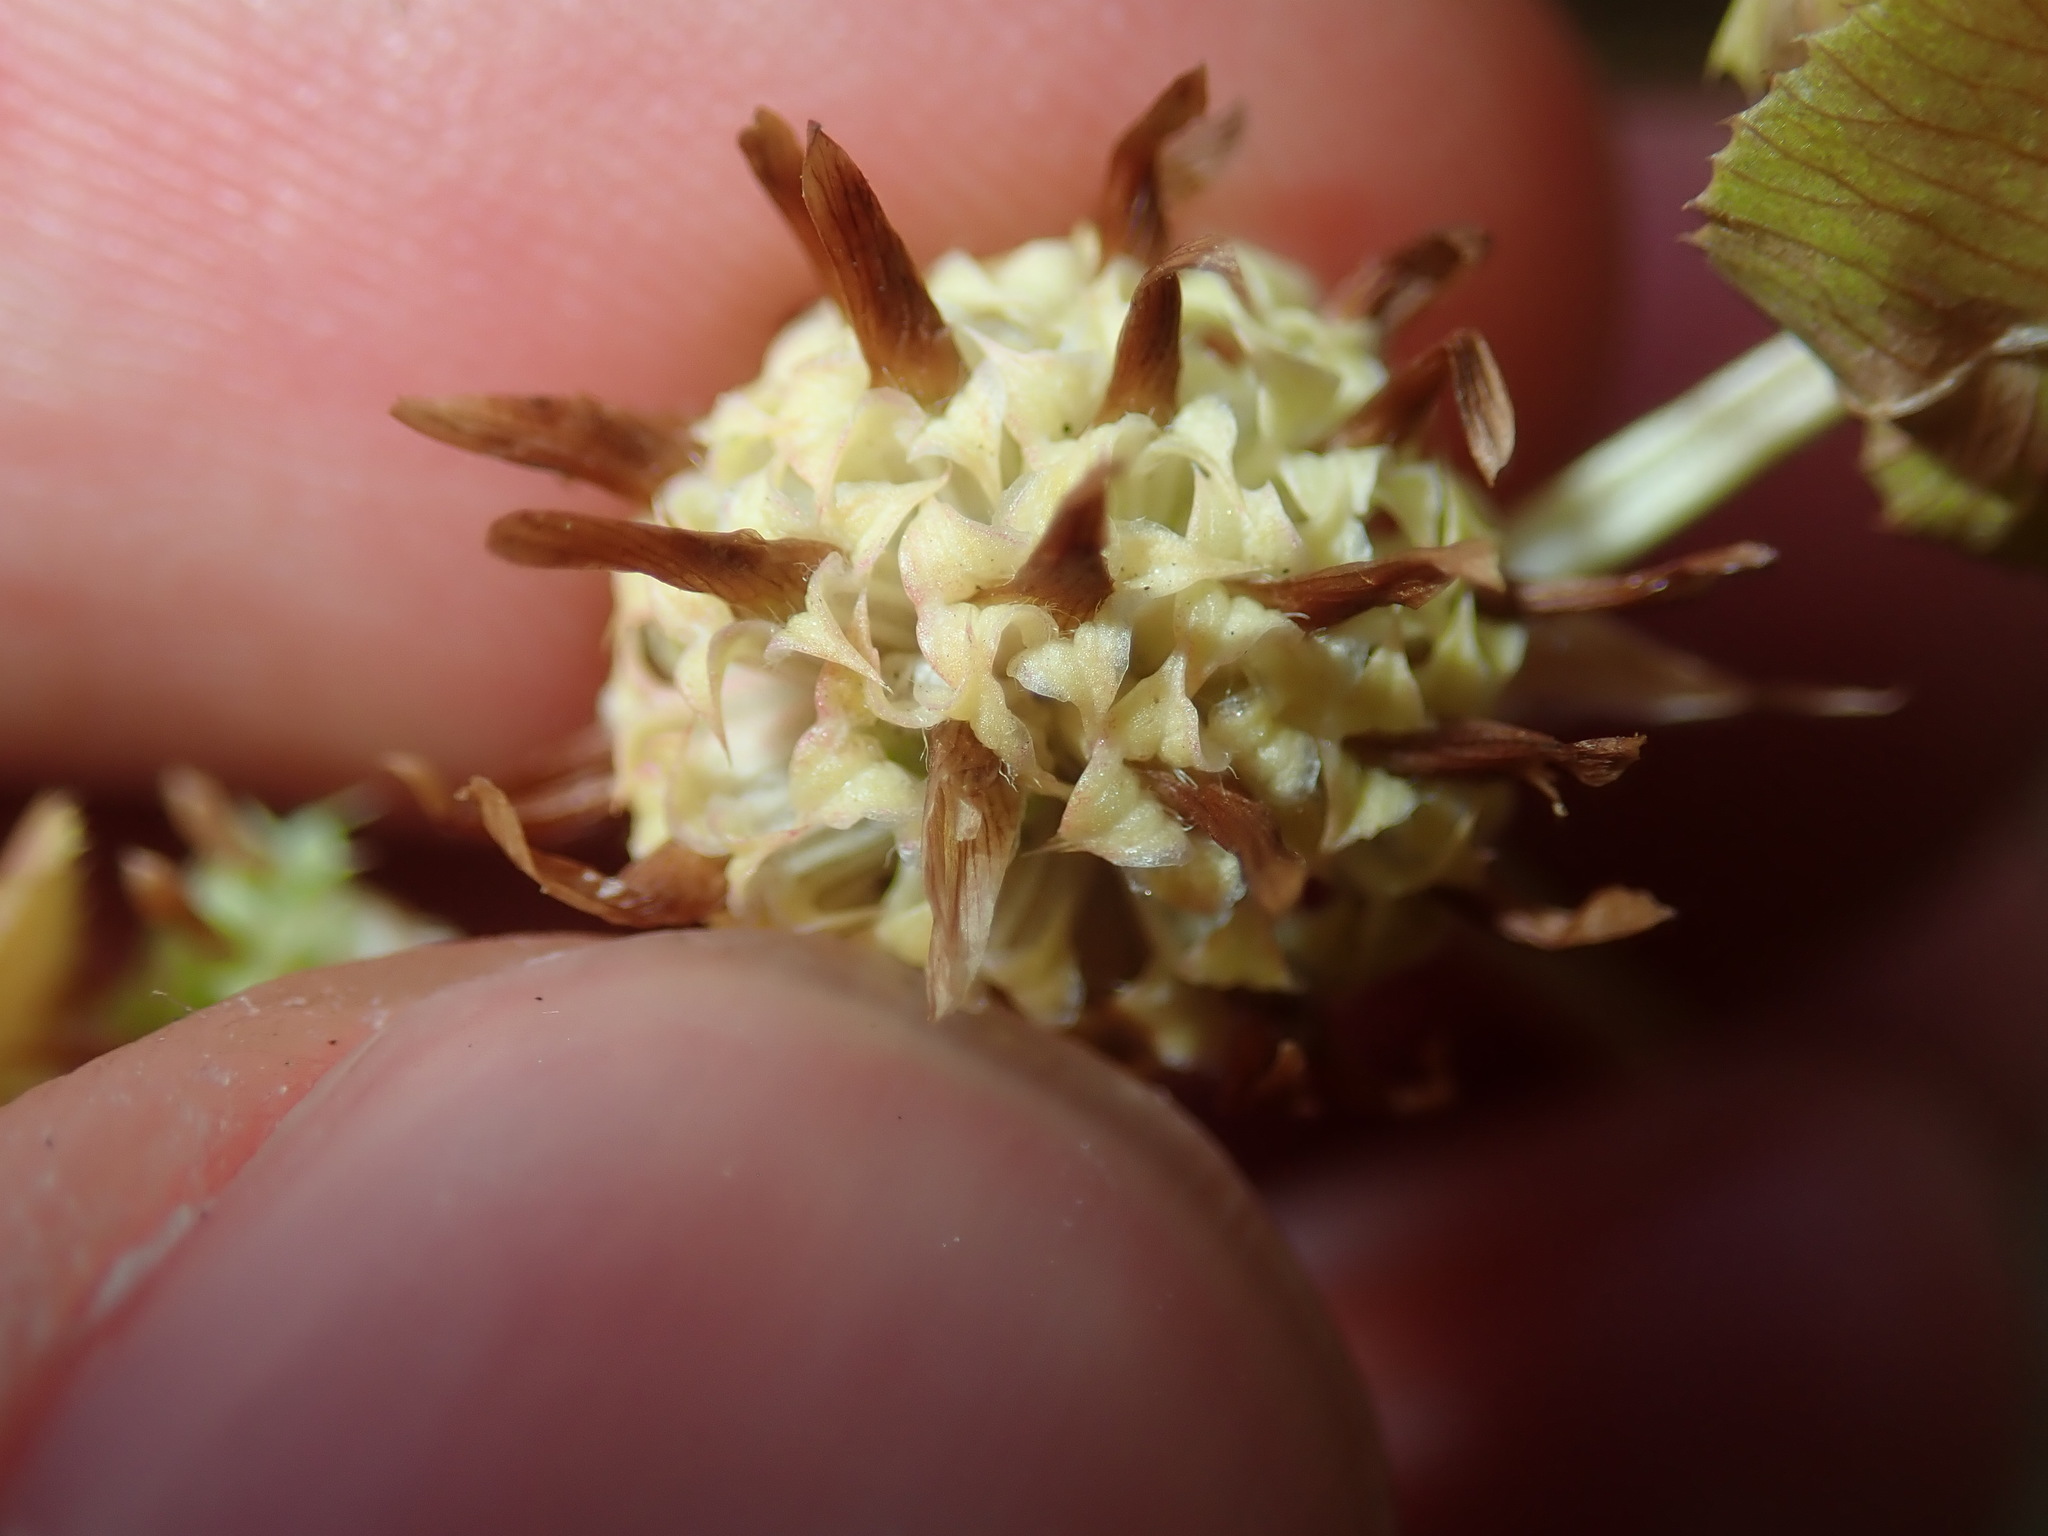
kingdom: Plantae
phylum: Tracheophyta
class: Magnoliopsida
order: Fabales
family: Fabaceae
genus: Trifolium
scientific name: Trifolium glomeratum
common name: Clustered clover
